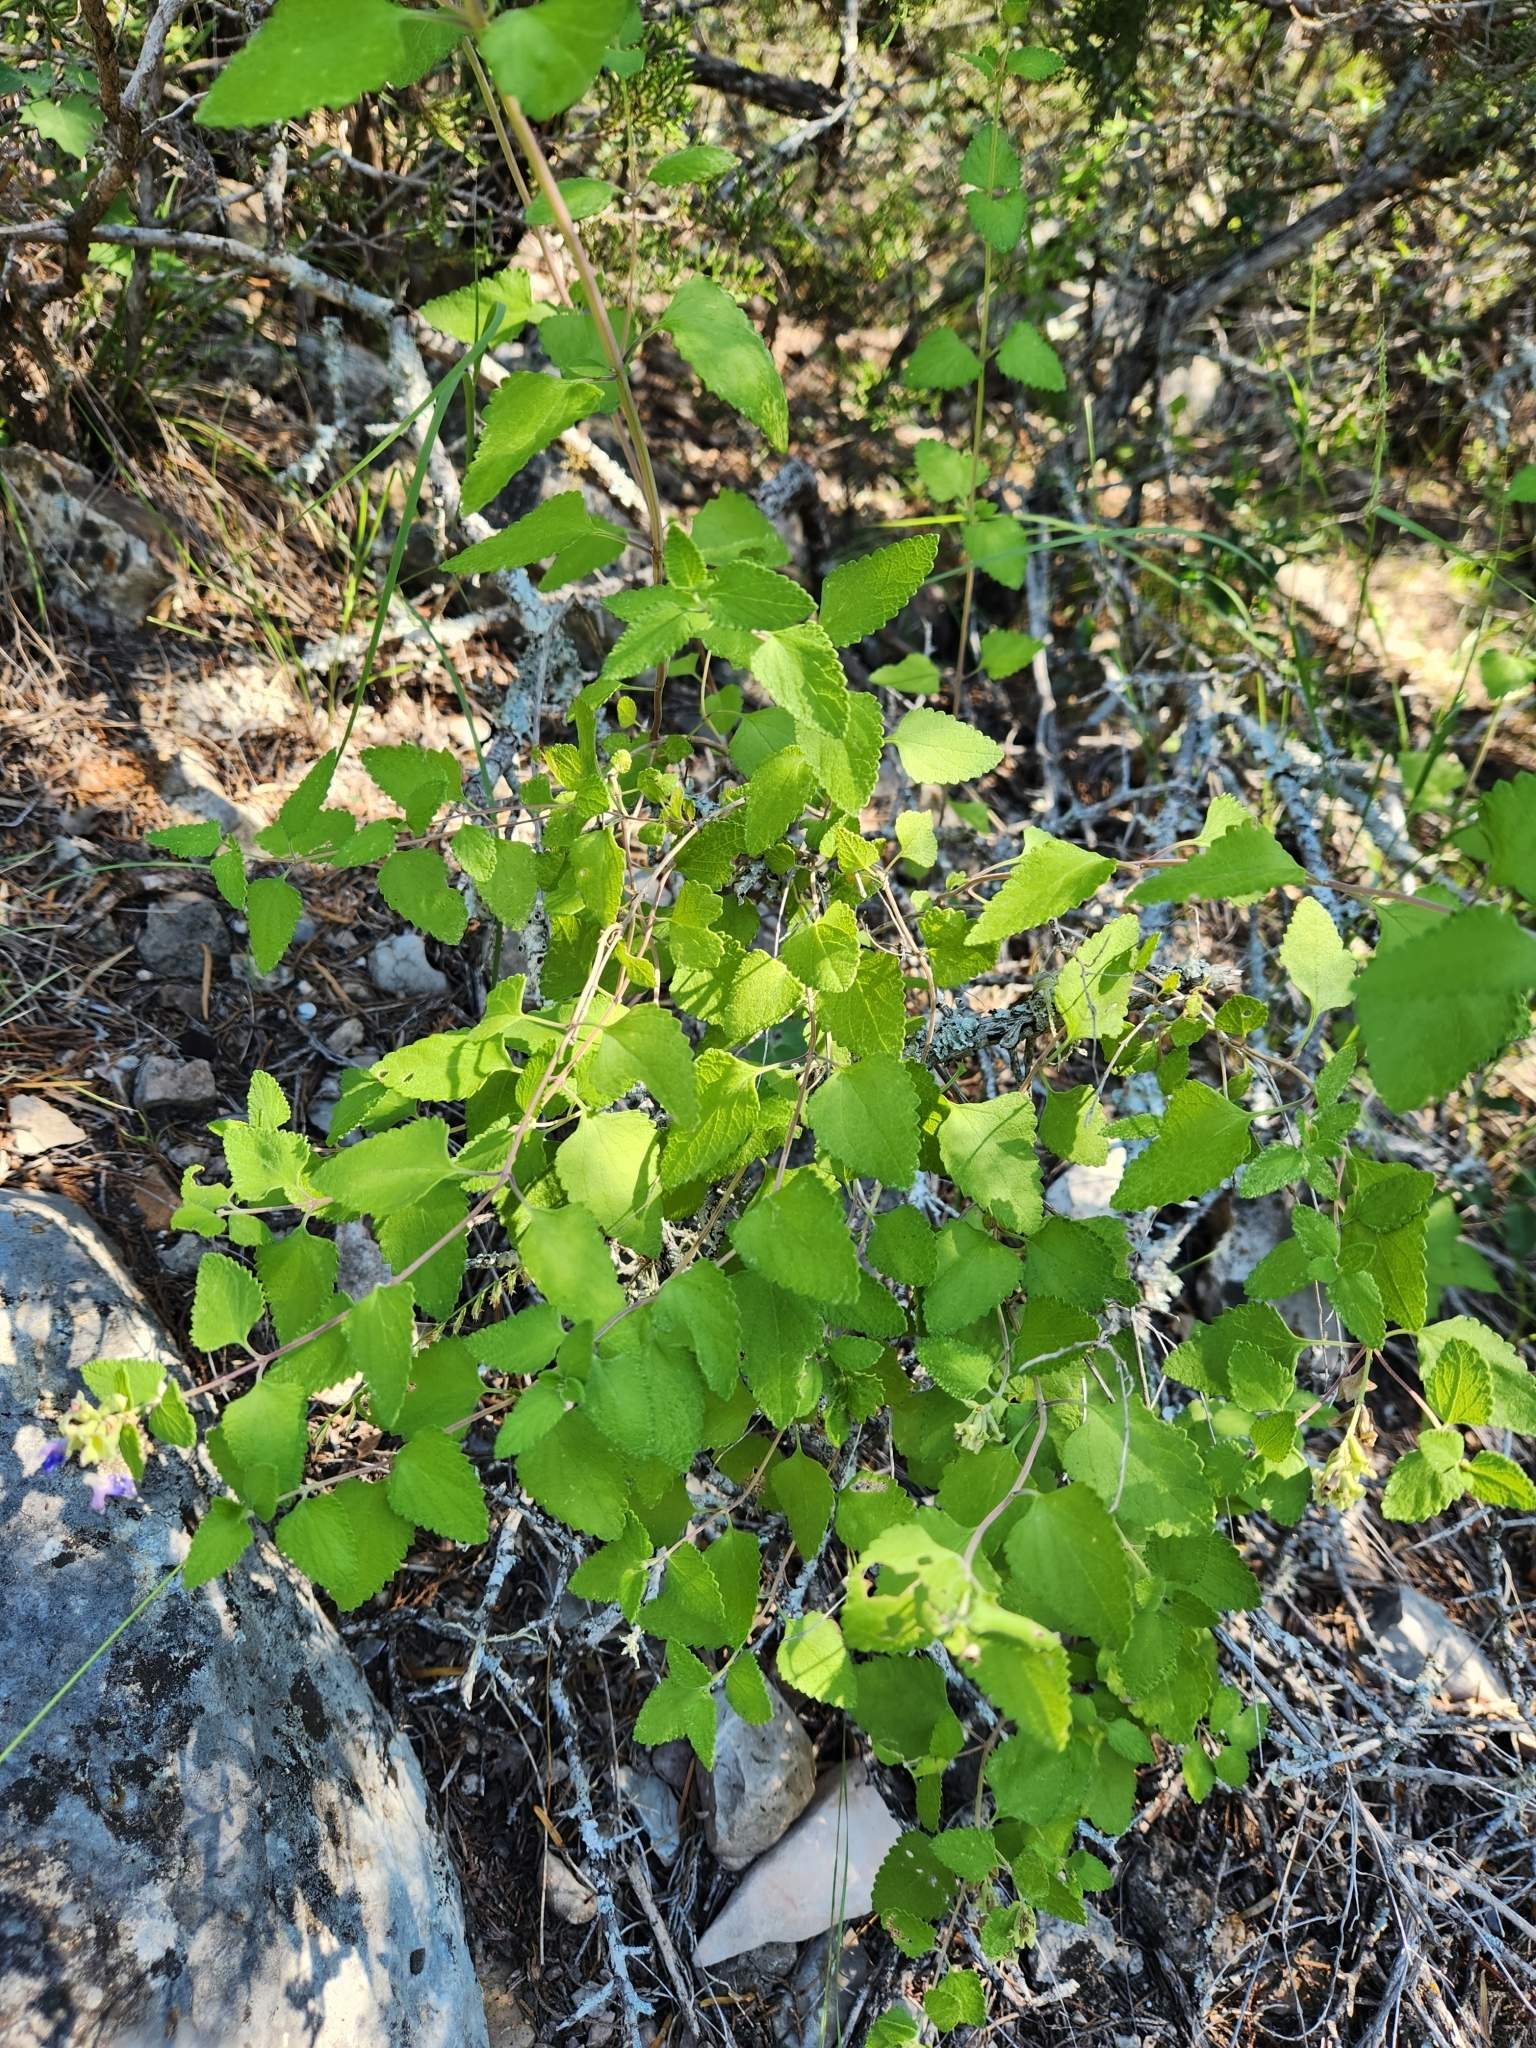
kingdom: Plantae
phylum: Tracheophyta
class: Magnoliopsida
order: Lamiales
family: Lamiaceae
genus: Salvia
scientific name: Salvia ballotiflora
